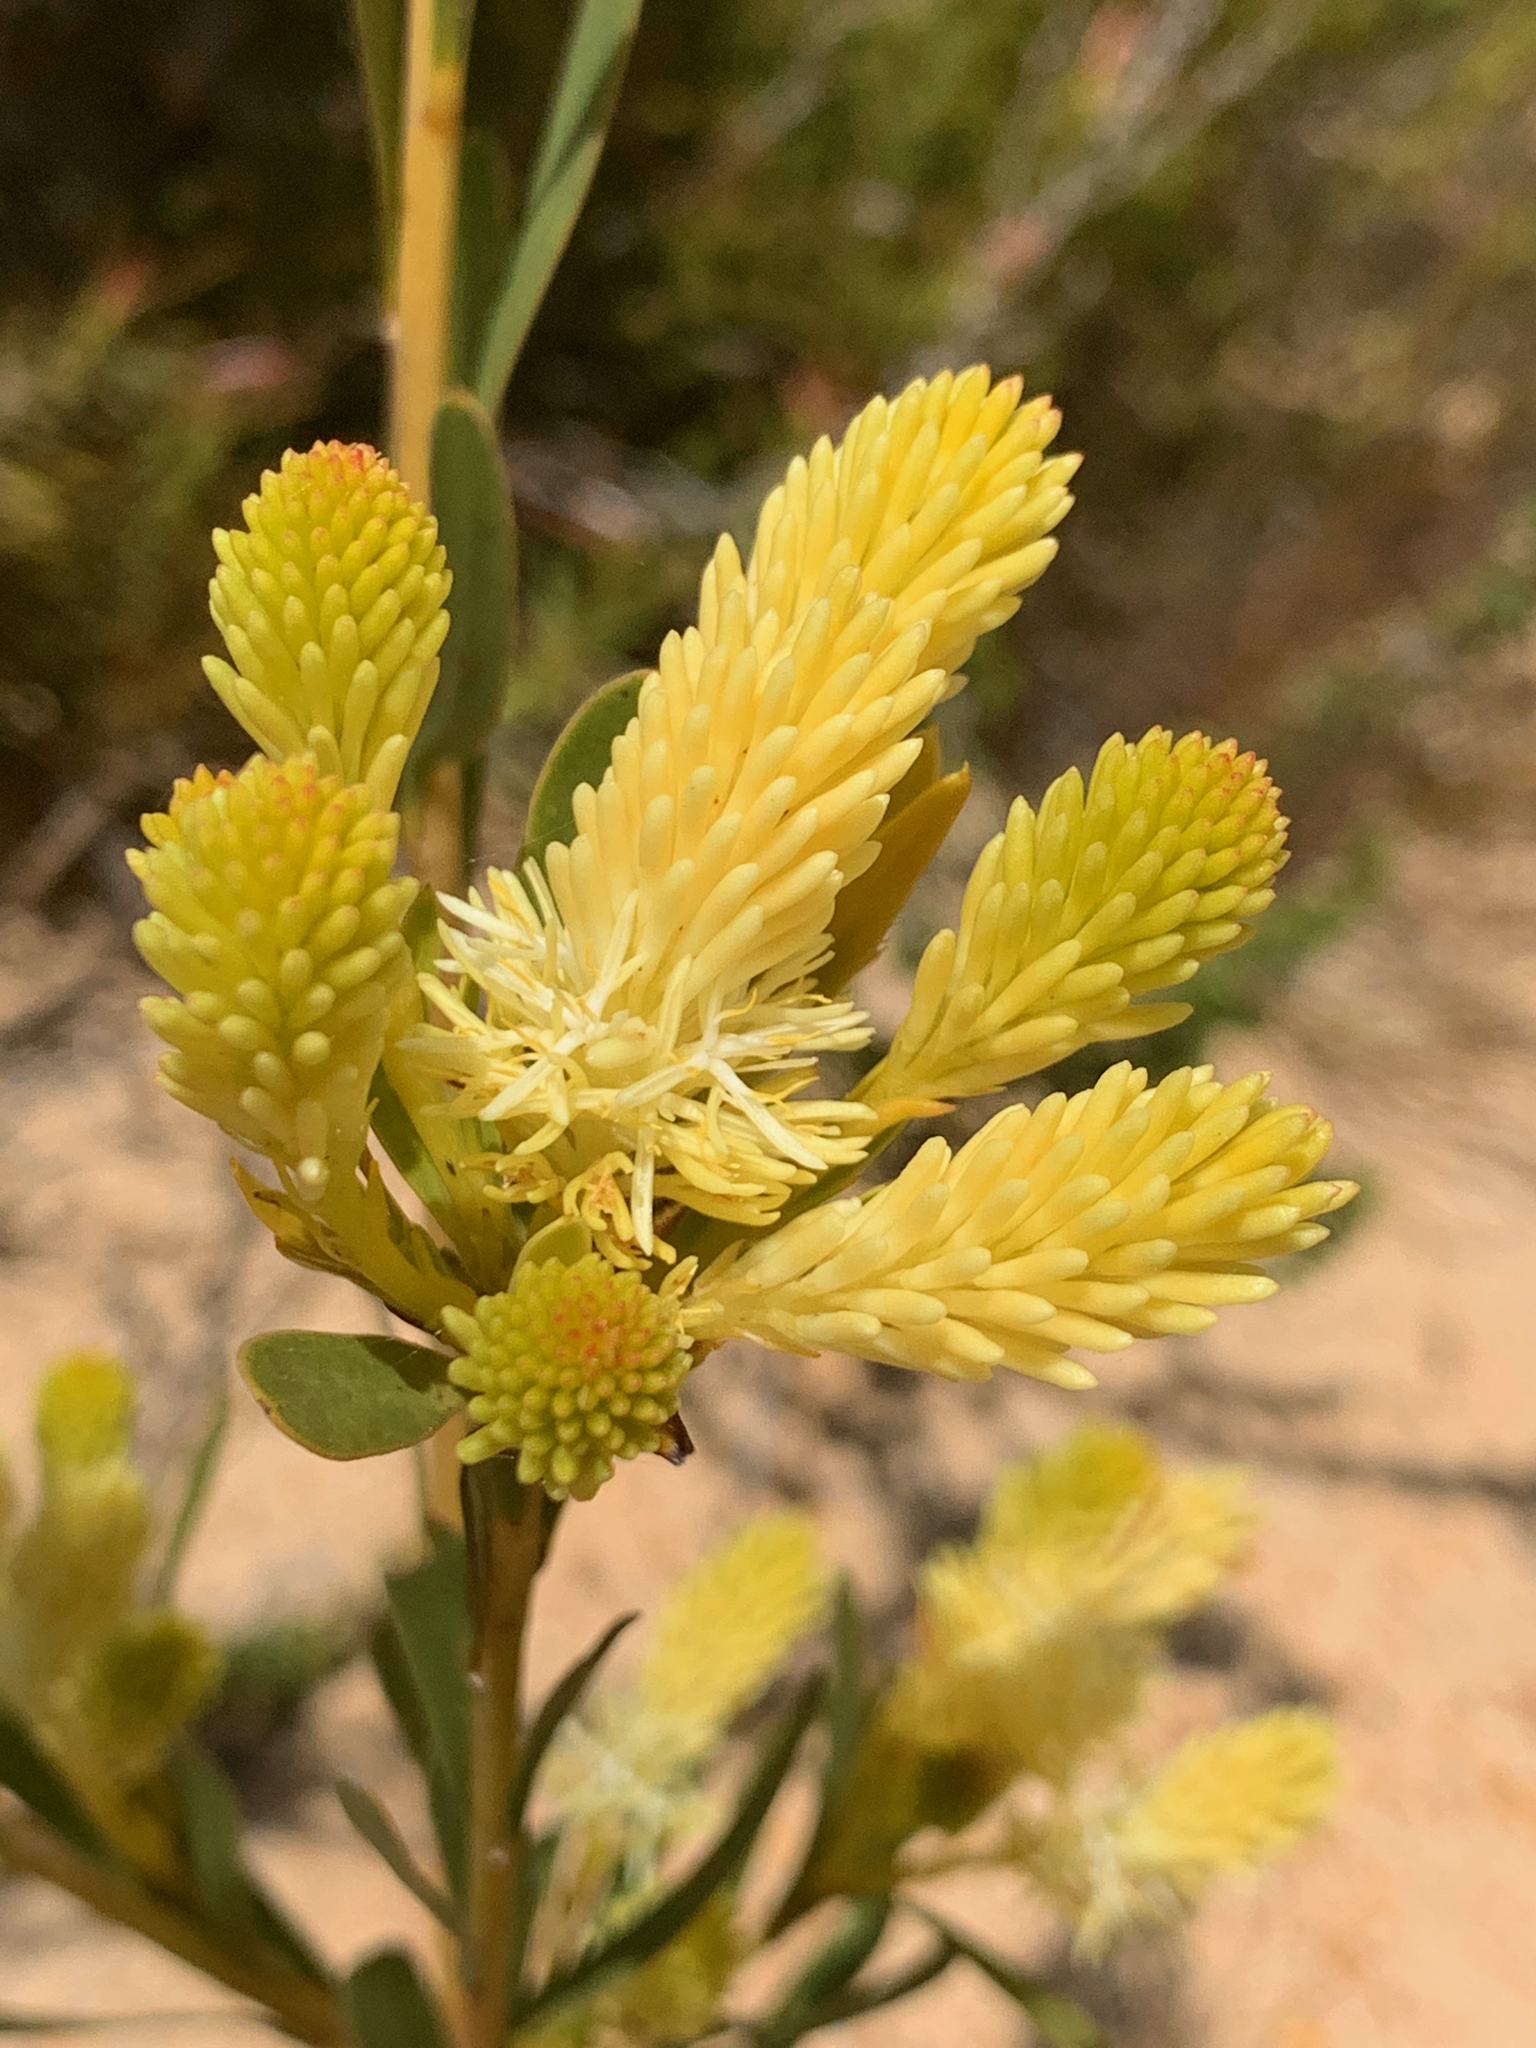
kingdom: Plantae
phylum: Tracheophyta
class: Magnoliopsida
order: Proteales
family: Proteaceae
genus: Aulax
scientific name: Aulax umbellata
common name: Broad-leaf featherbush
